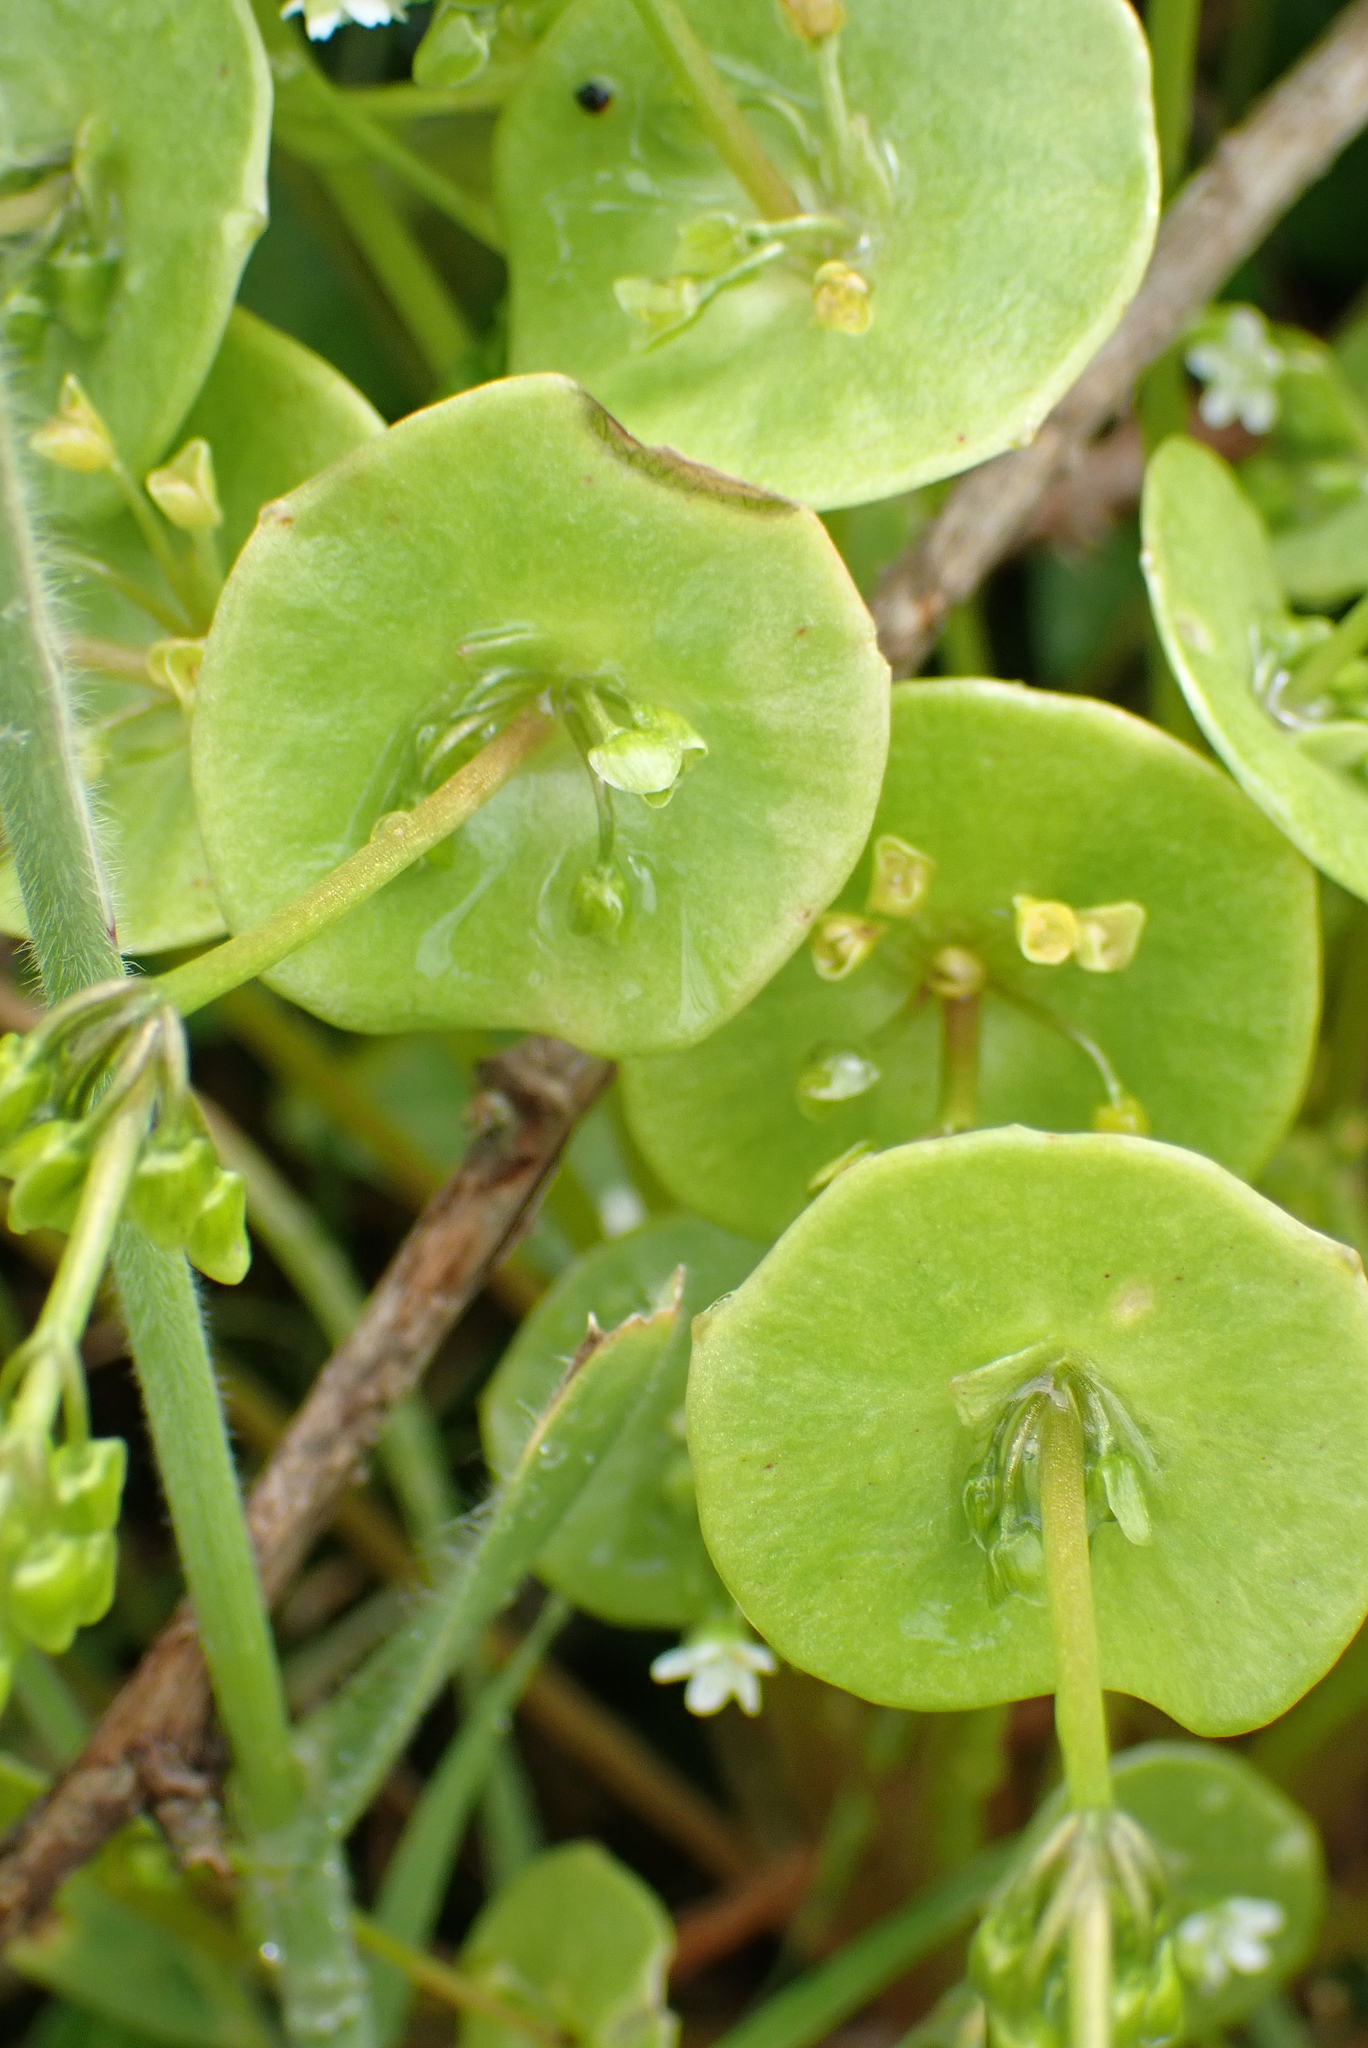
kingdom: Plantae
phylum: Tracheophyta
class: Magnoliopsida
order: Caryophyllales
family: Montiaceae
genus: Claytonia
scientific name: Claytonia perfoliata
